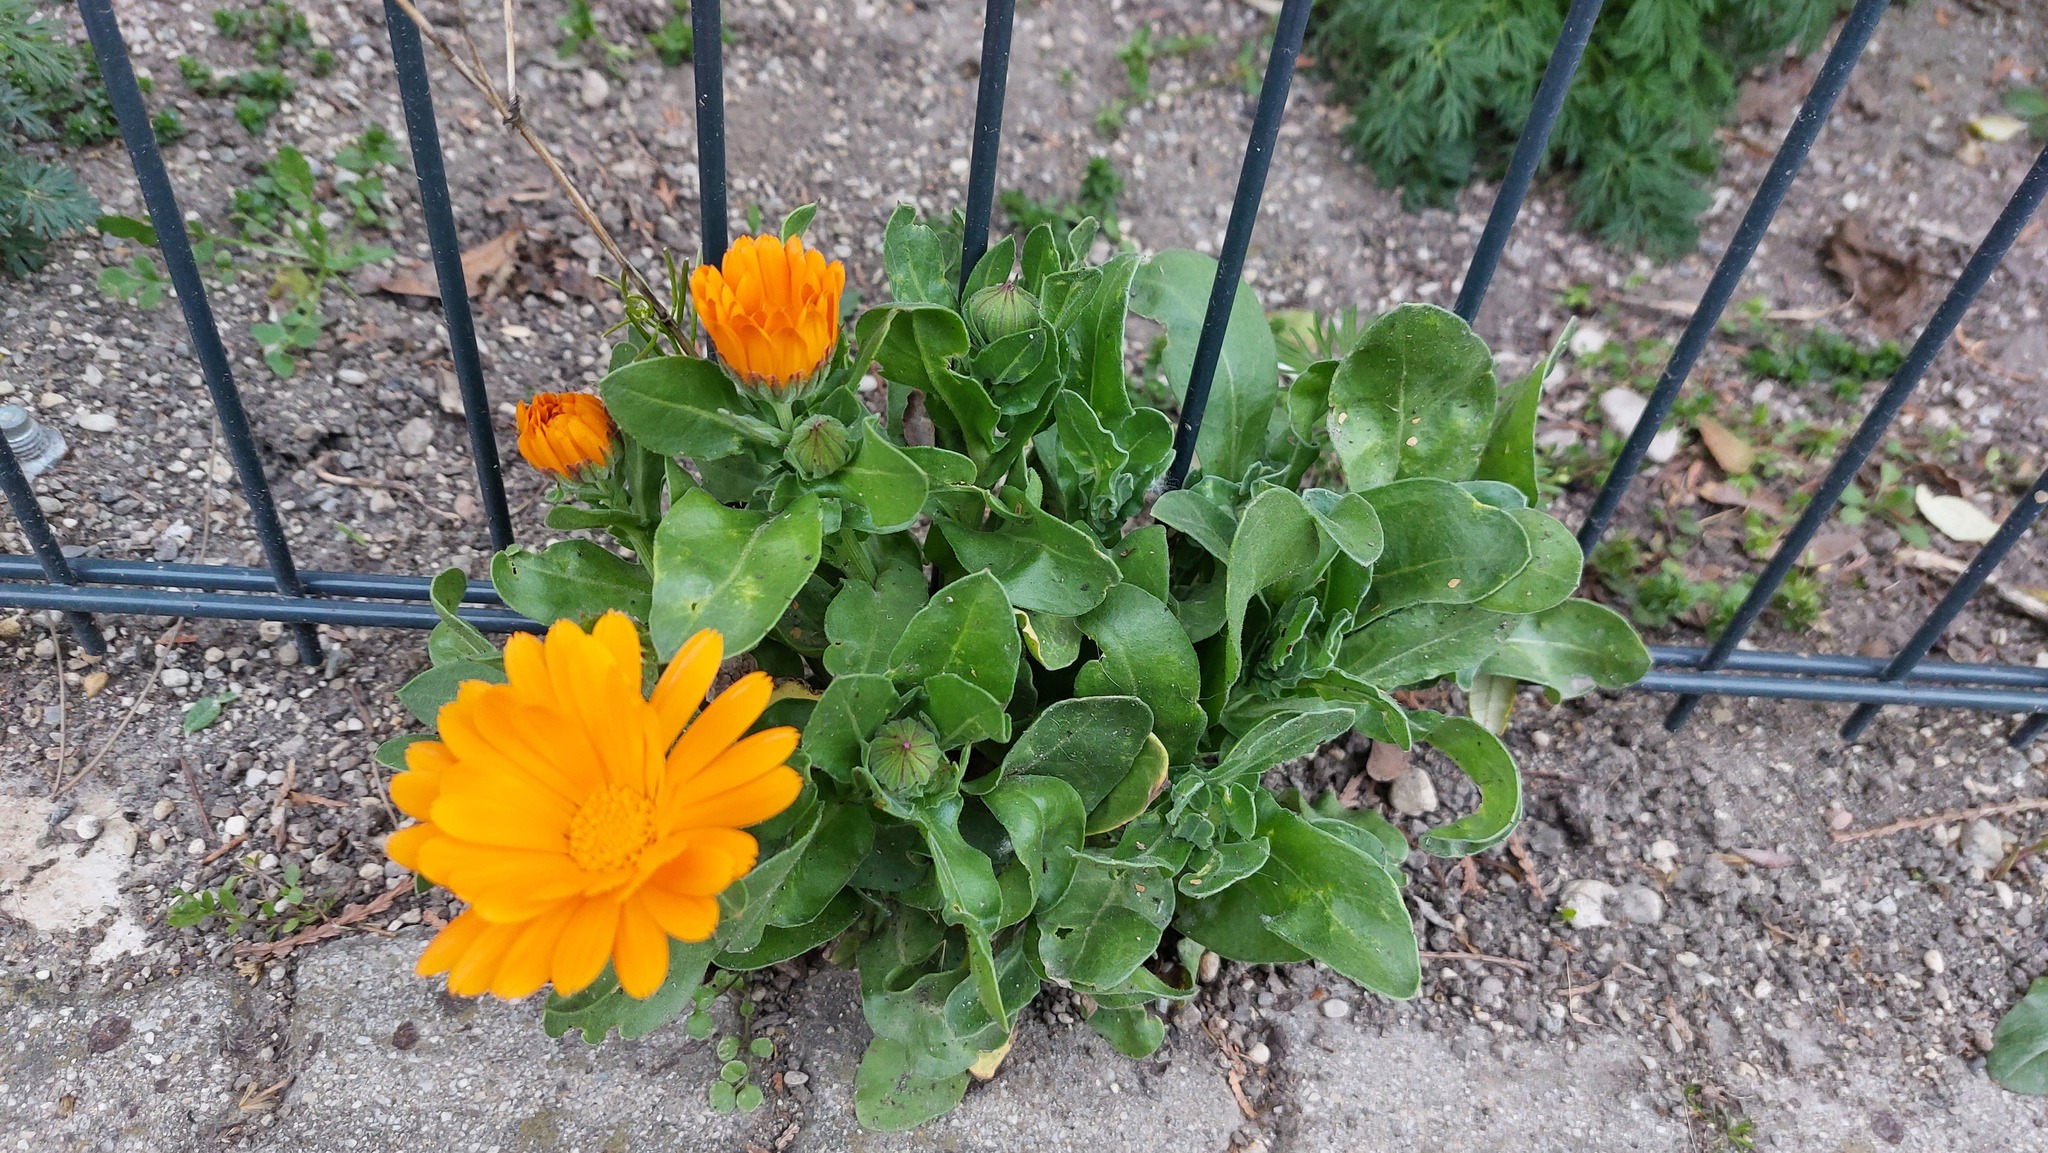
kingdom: Plantae
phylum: Tracheophyta
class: Magnoliopsida
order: Asterales
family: Asteraceae
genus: Calendula
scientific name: Calendula officinalis
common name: Pot marigold
